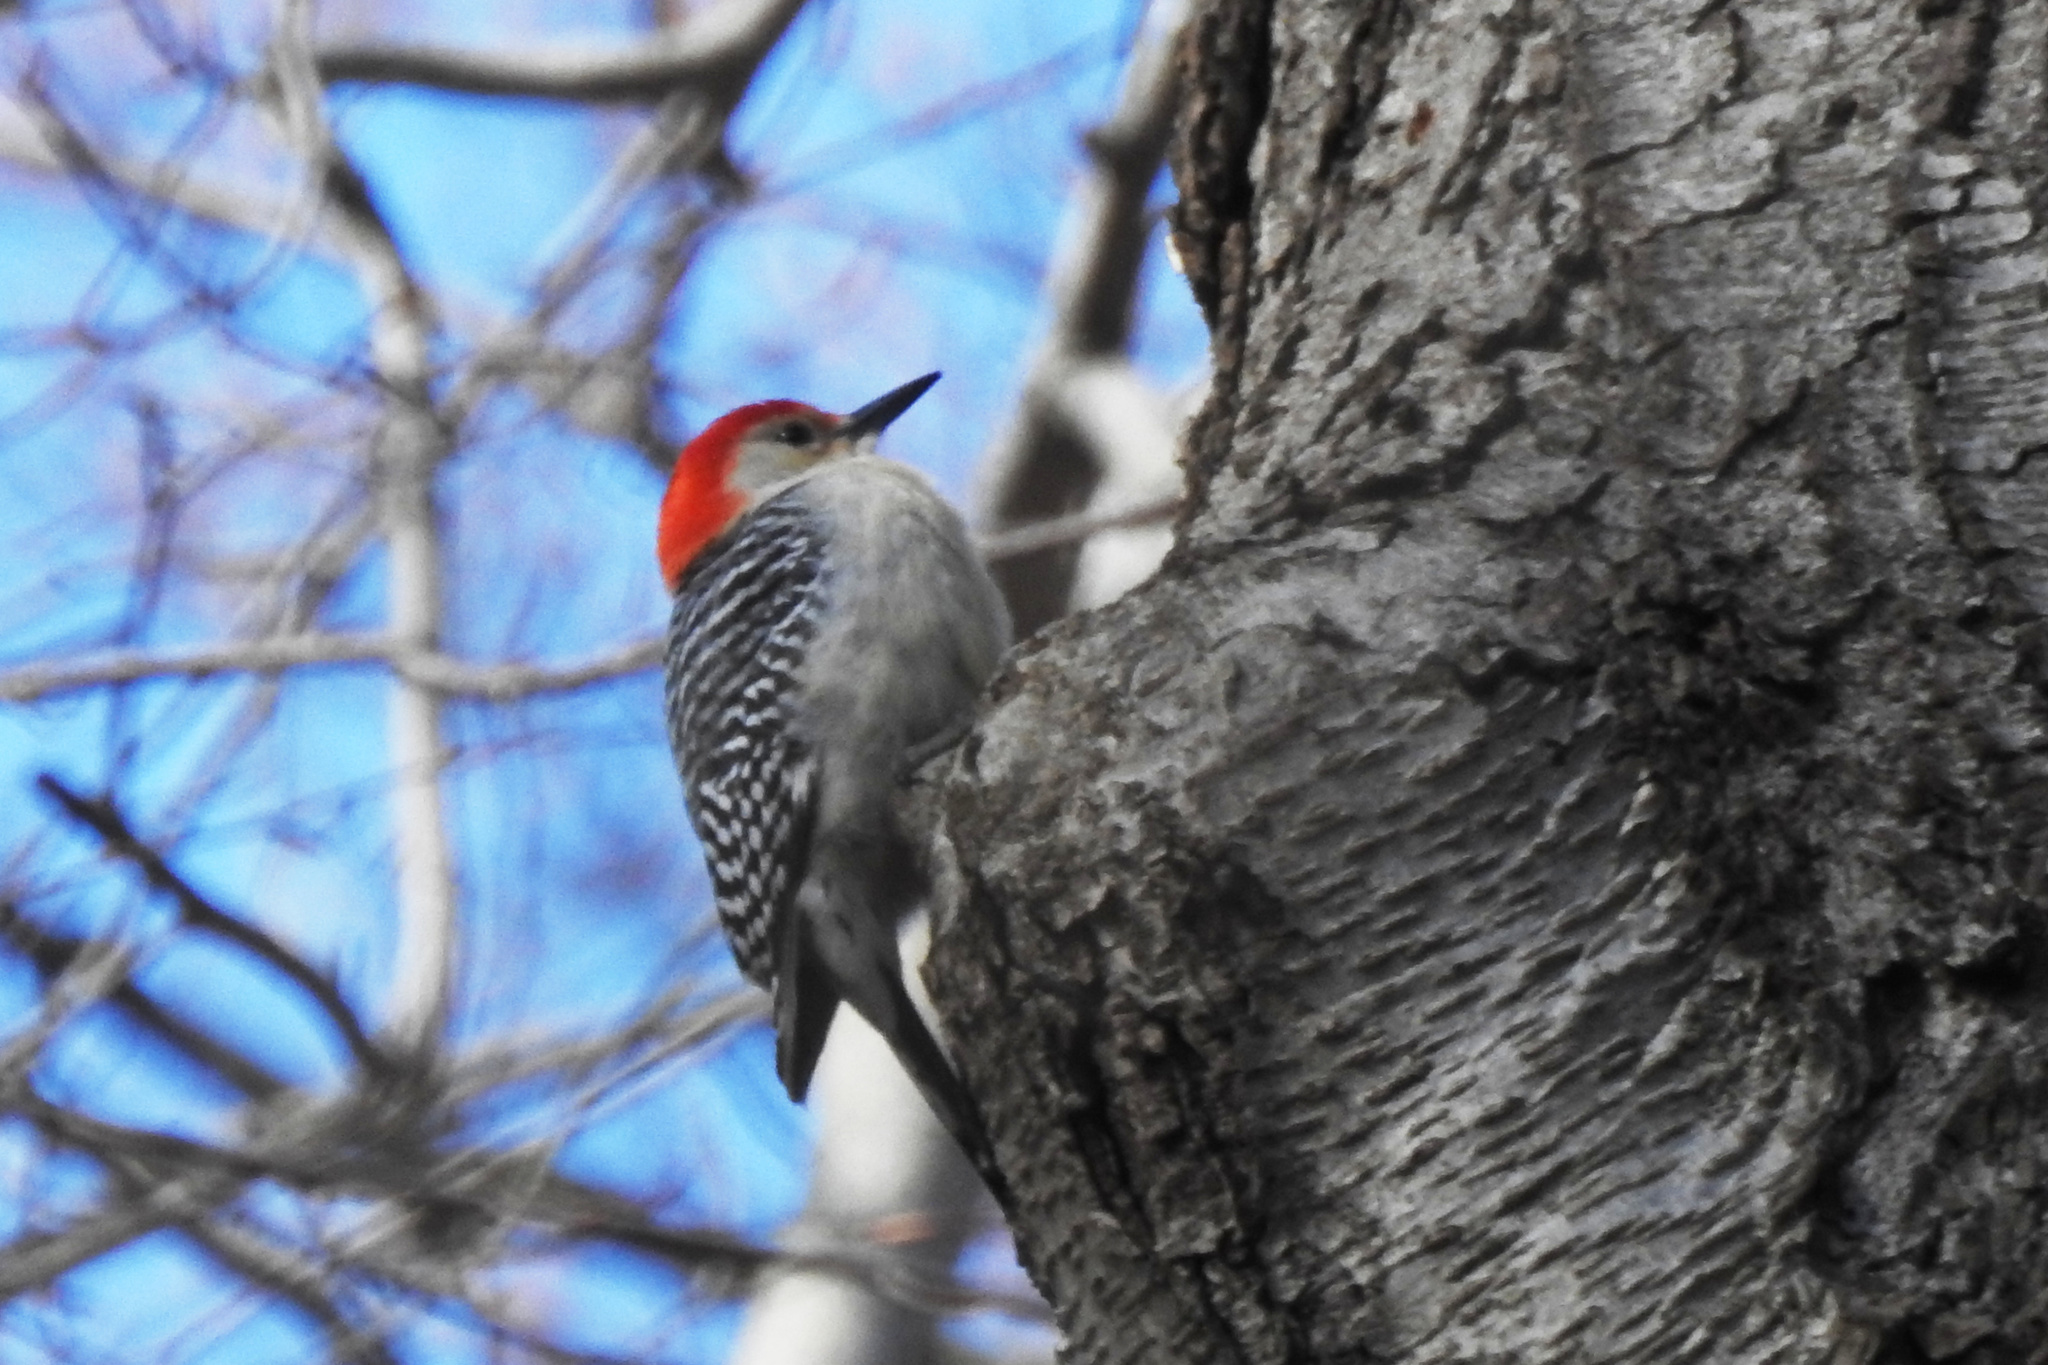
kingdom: Animalia
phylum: Chordata
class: Aves
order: Piciformes
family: Picidae
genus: Melanerpes
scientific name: Melanerpes carolinus
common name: Red-bellied woodpecker
